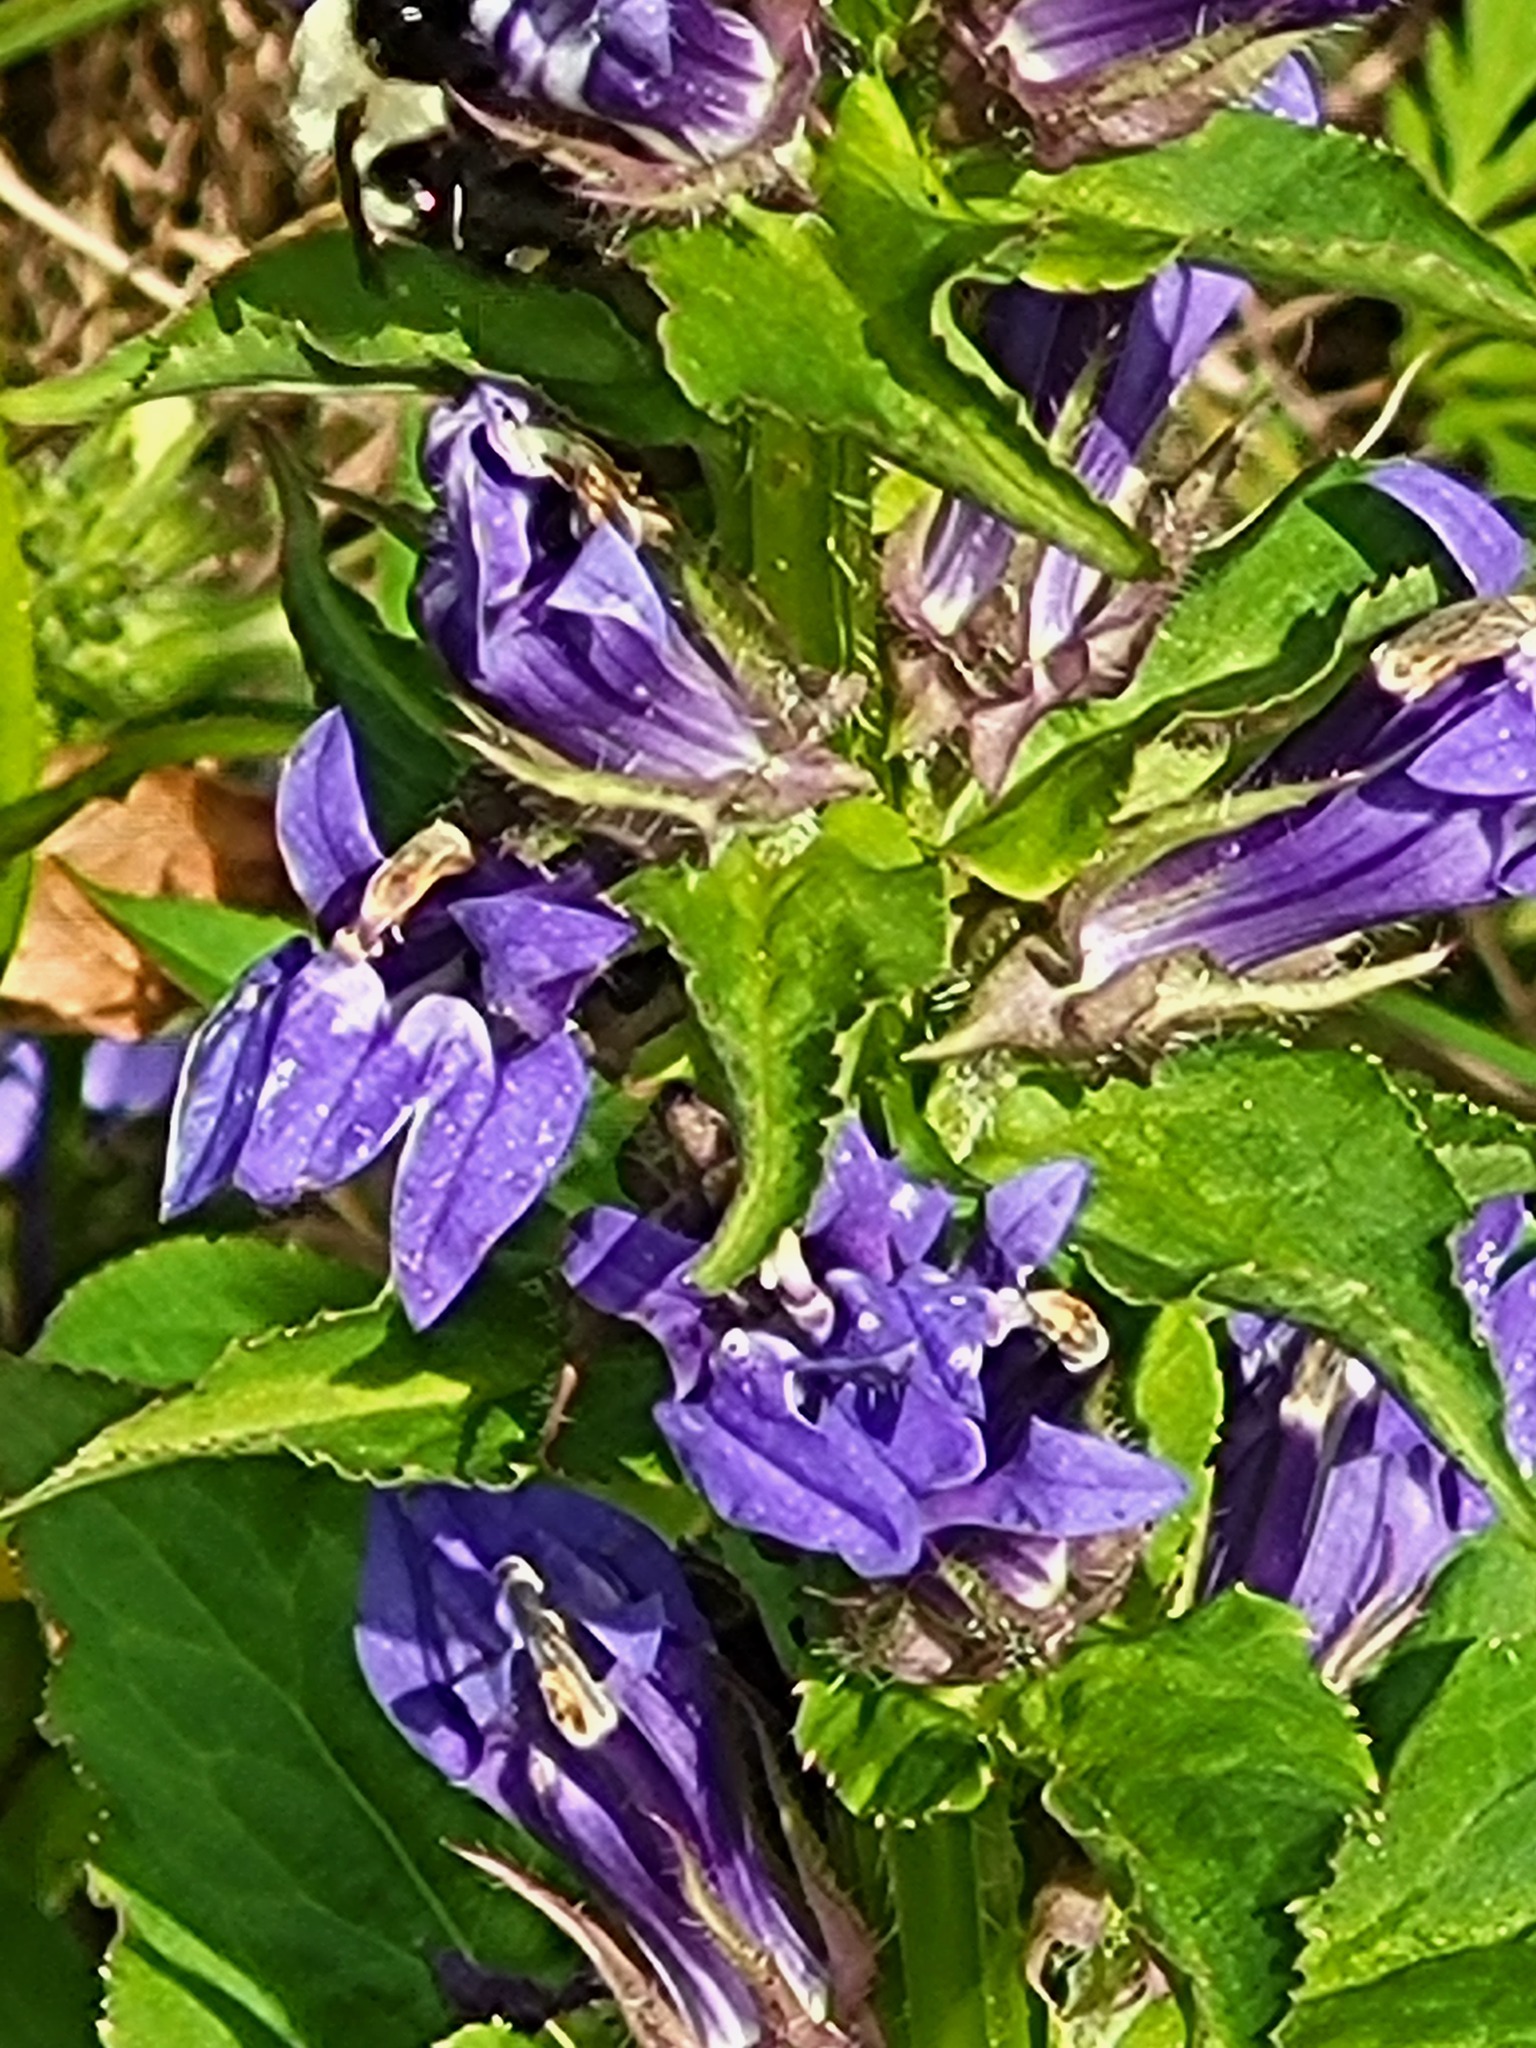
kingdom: Plantae
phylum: Tracheophyta
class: Magnoliopsida
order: Asterales
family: Campanulaceae
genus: Lobelia
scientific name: Lobelia siphilitica
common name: Great lobelia
